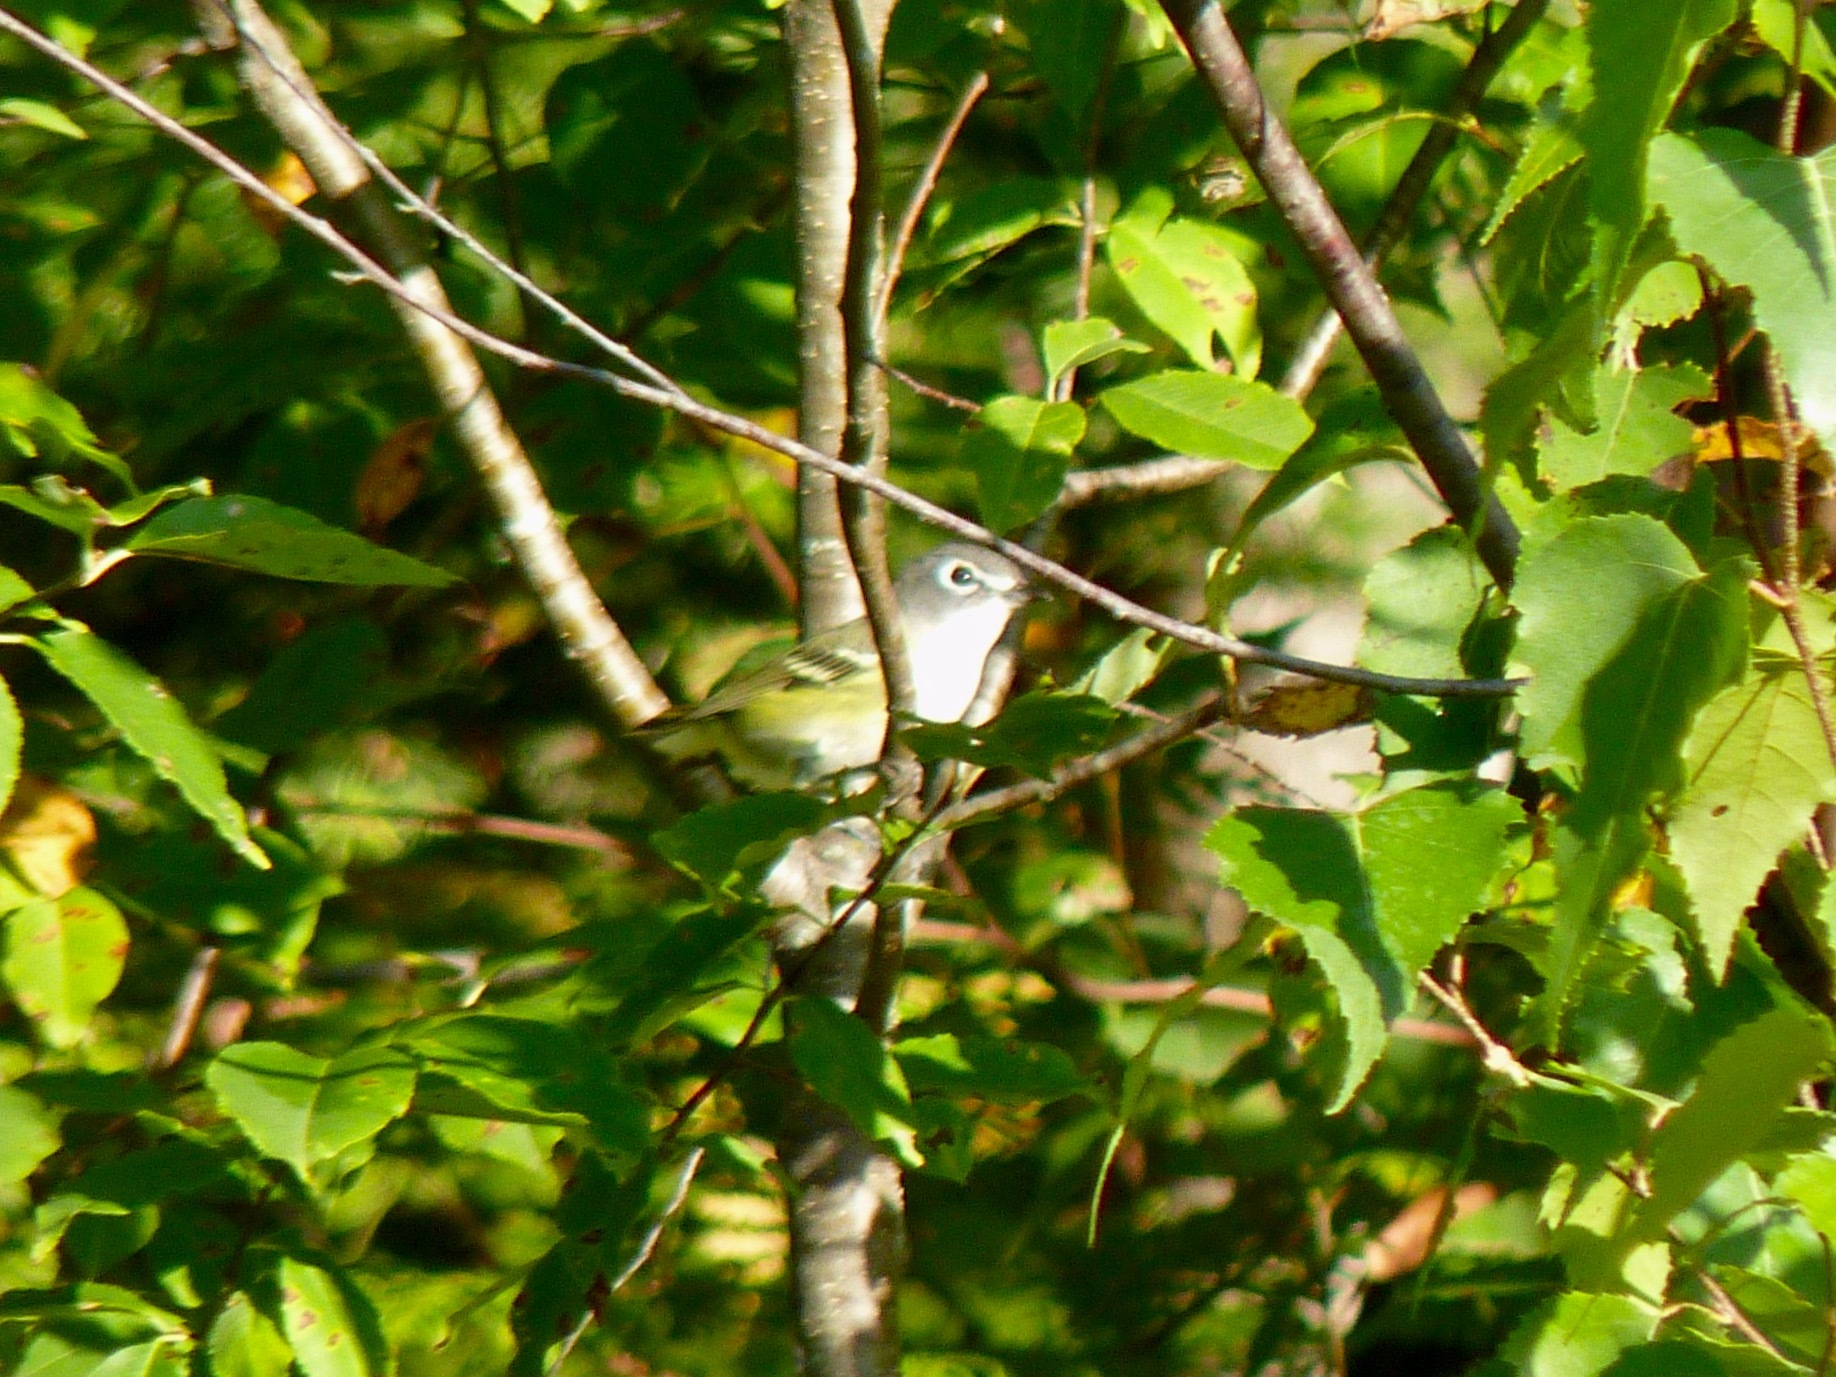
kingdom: Animalia
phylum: Chordata
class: Aves
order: Passeriformes
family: Vireonidae
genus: Vireo
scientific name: Vireo solitarius
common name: Blue-headed vireo
